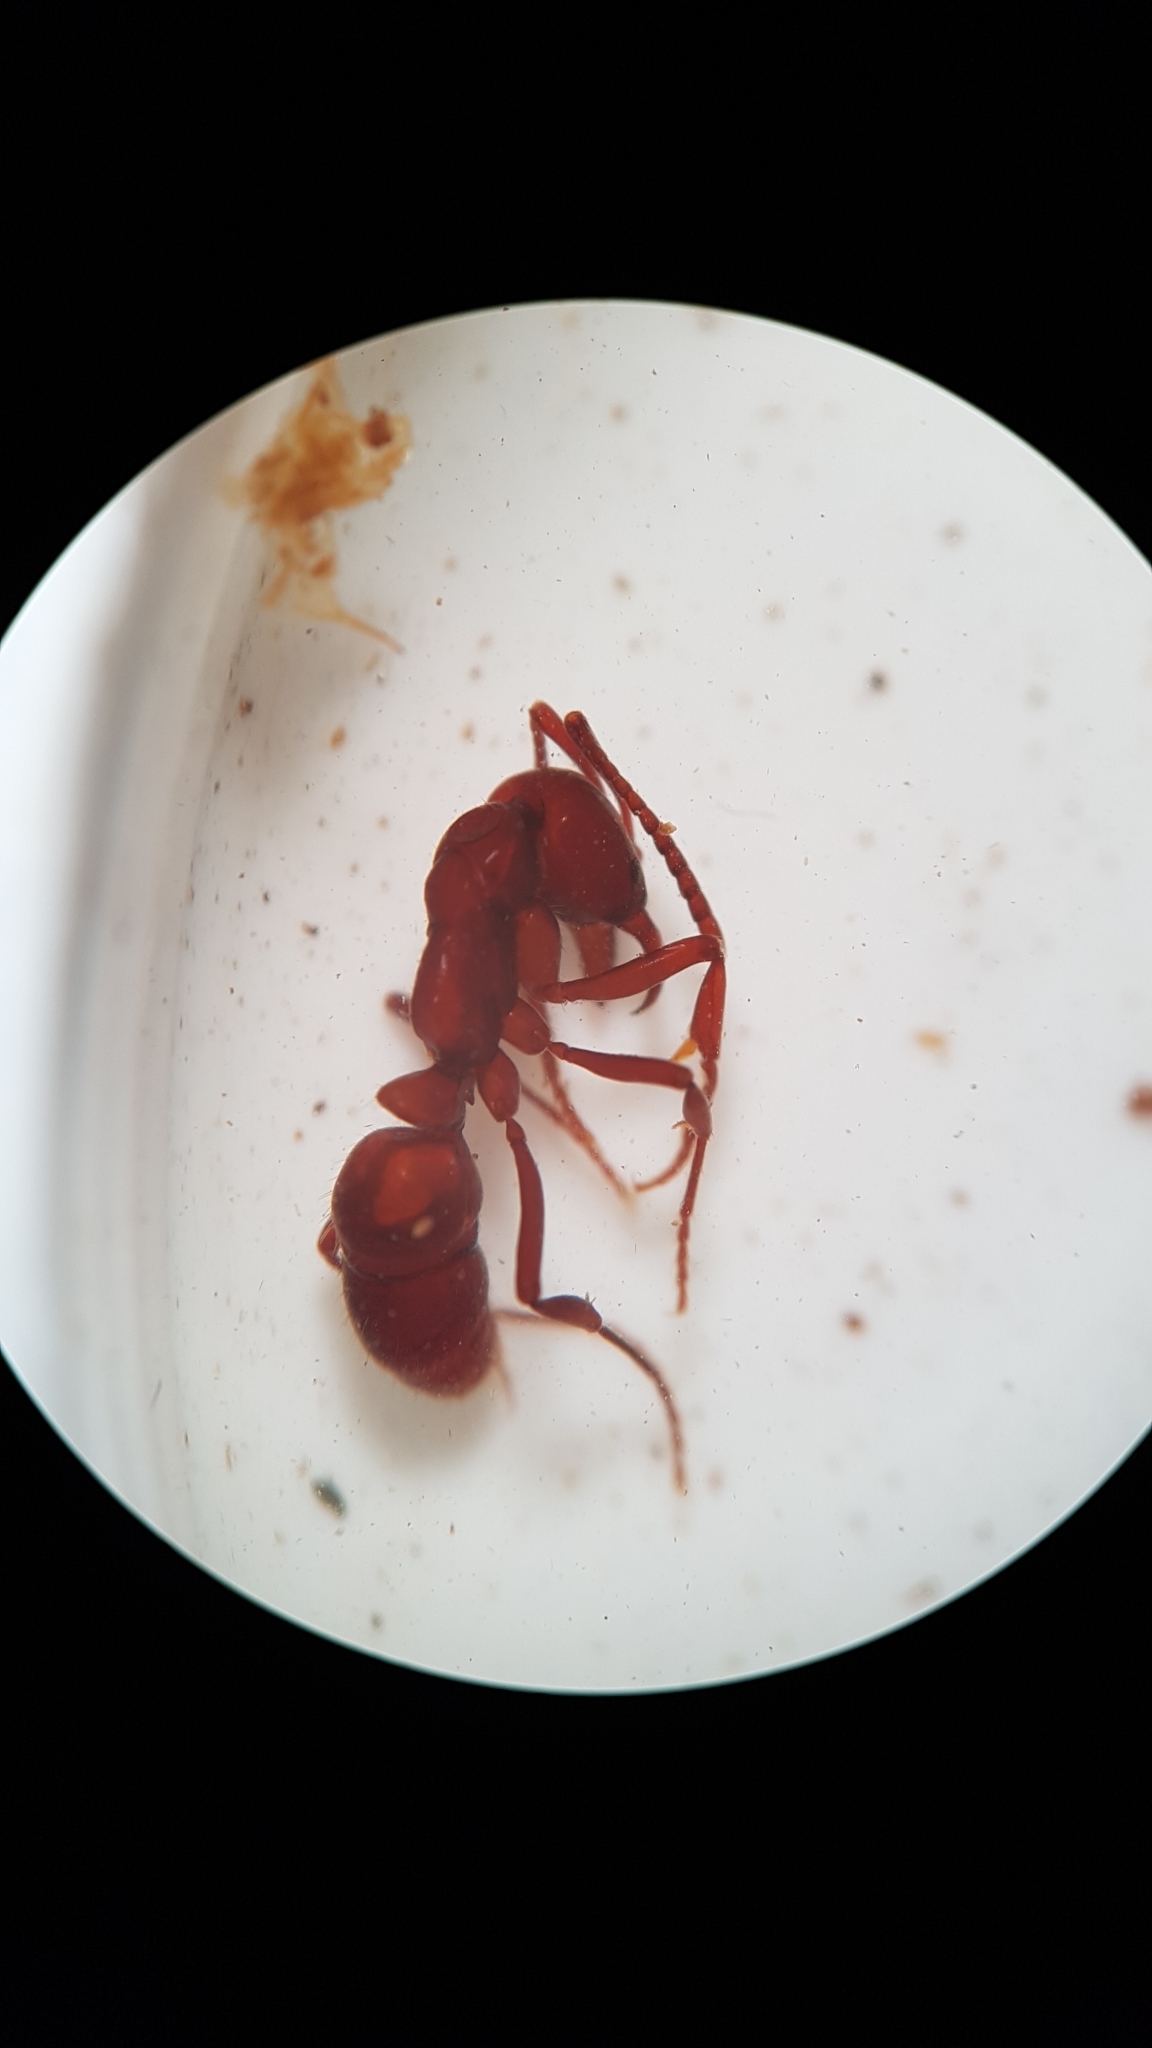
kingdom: Animalia
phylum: Arthropoda
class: Insecta
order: Hymenoptera
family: Formicidae
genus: Austroponera
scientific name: Austroponera
